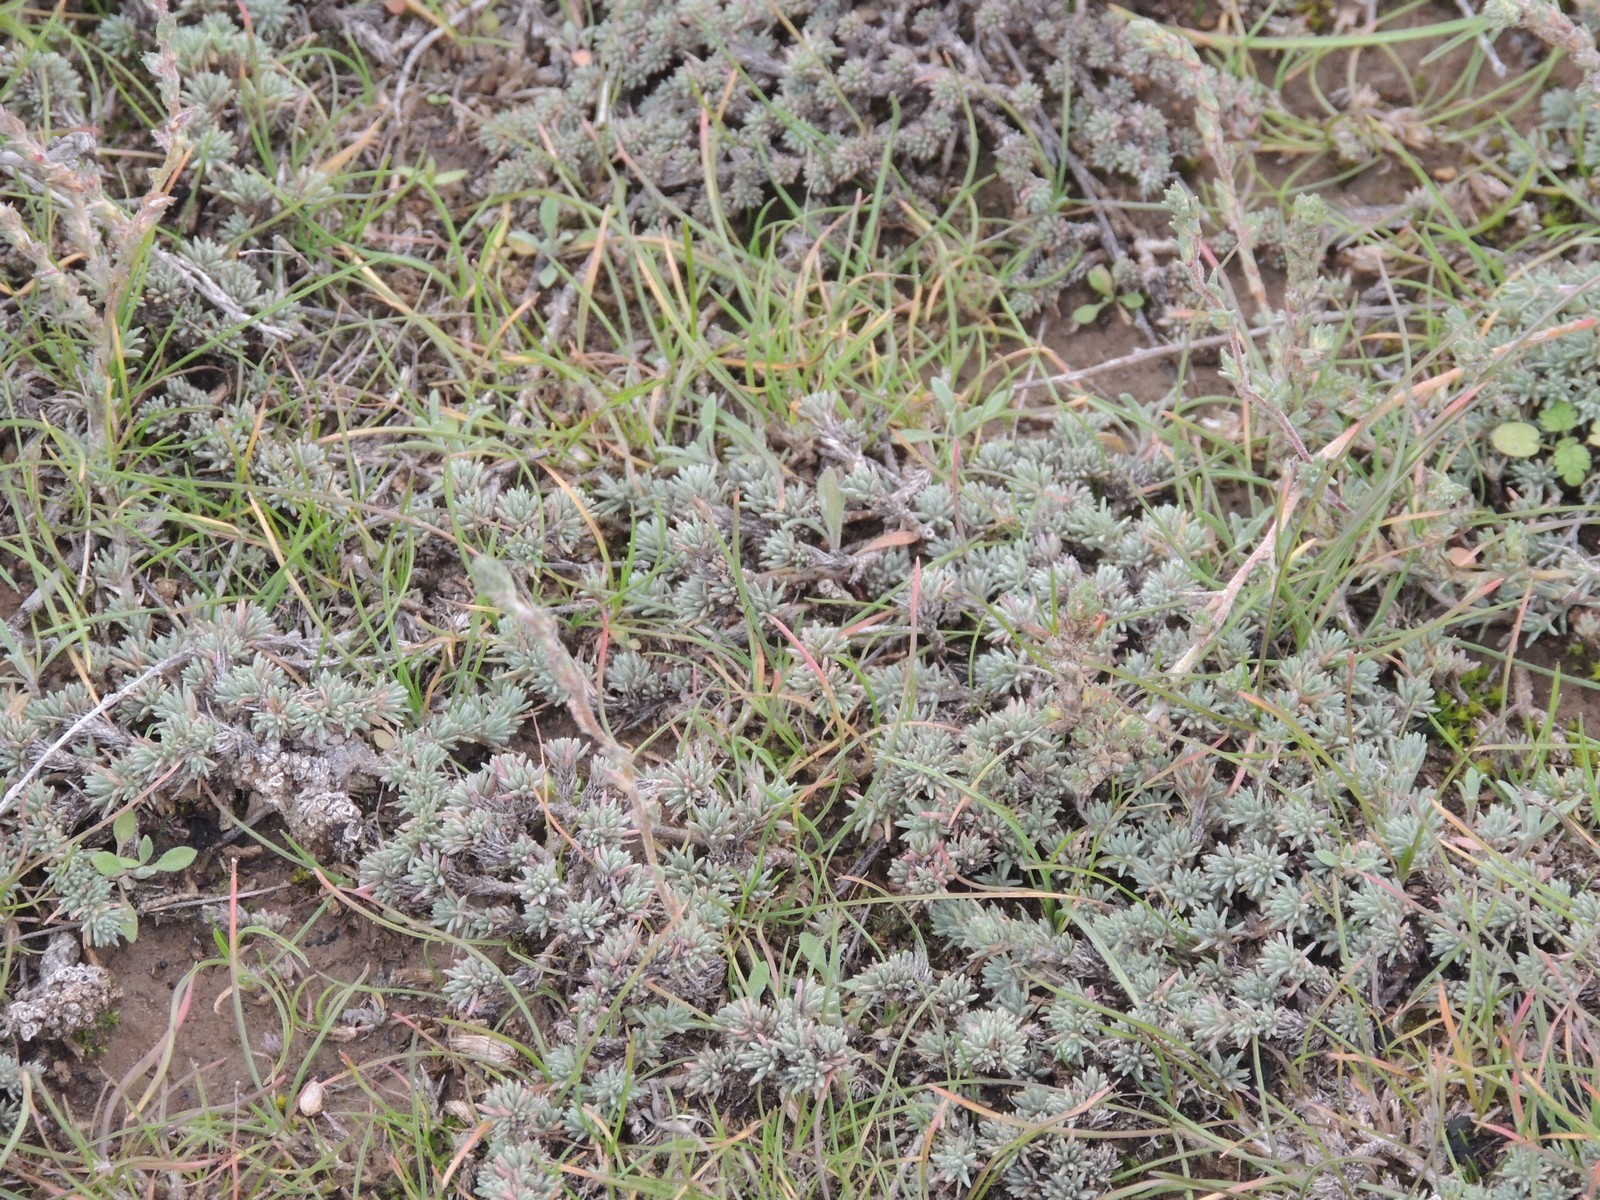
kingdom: Plantae
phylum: Tracheophyta
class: Magnoliopsida
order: Caryophyllales
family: Amaranthaceae
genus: Camphorosma
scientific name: Camphorosma monspeliaca
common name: Camphorfume
